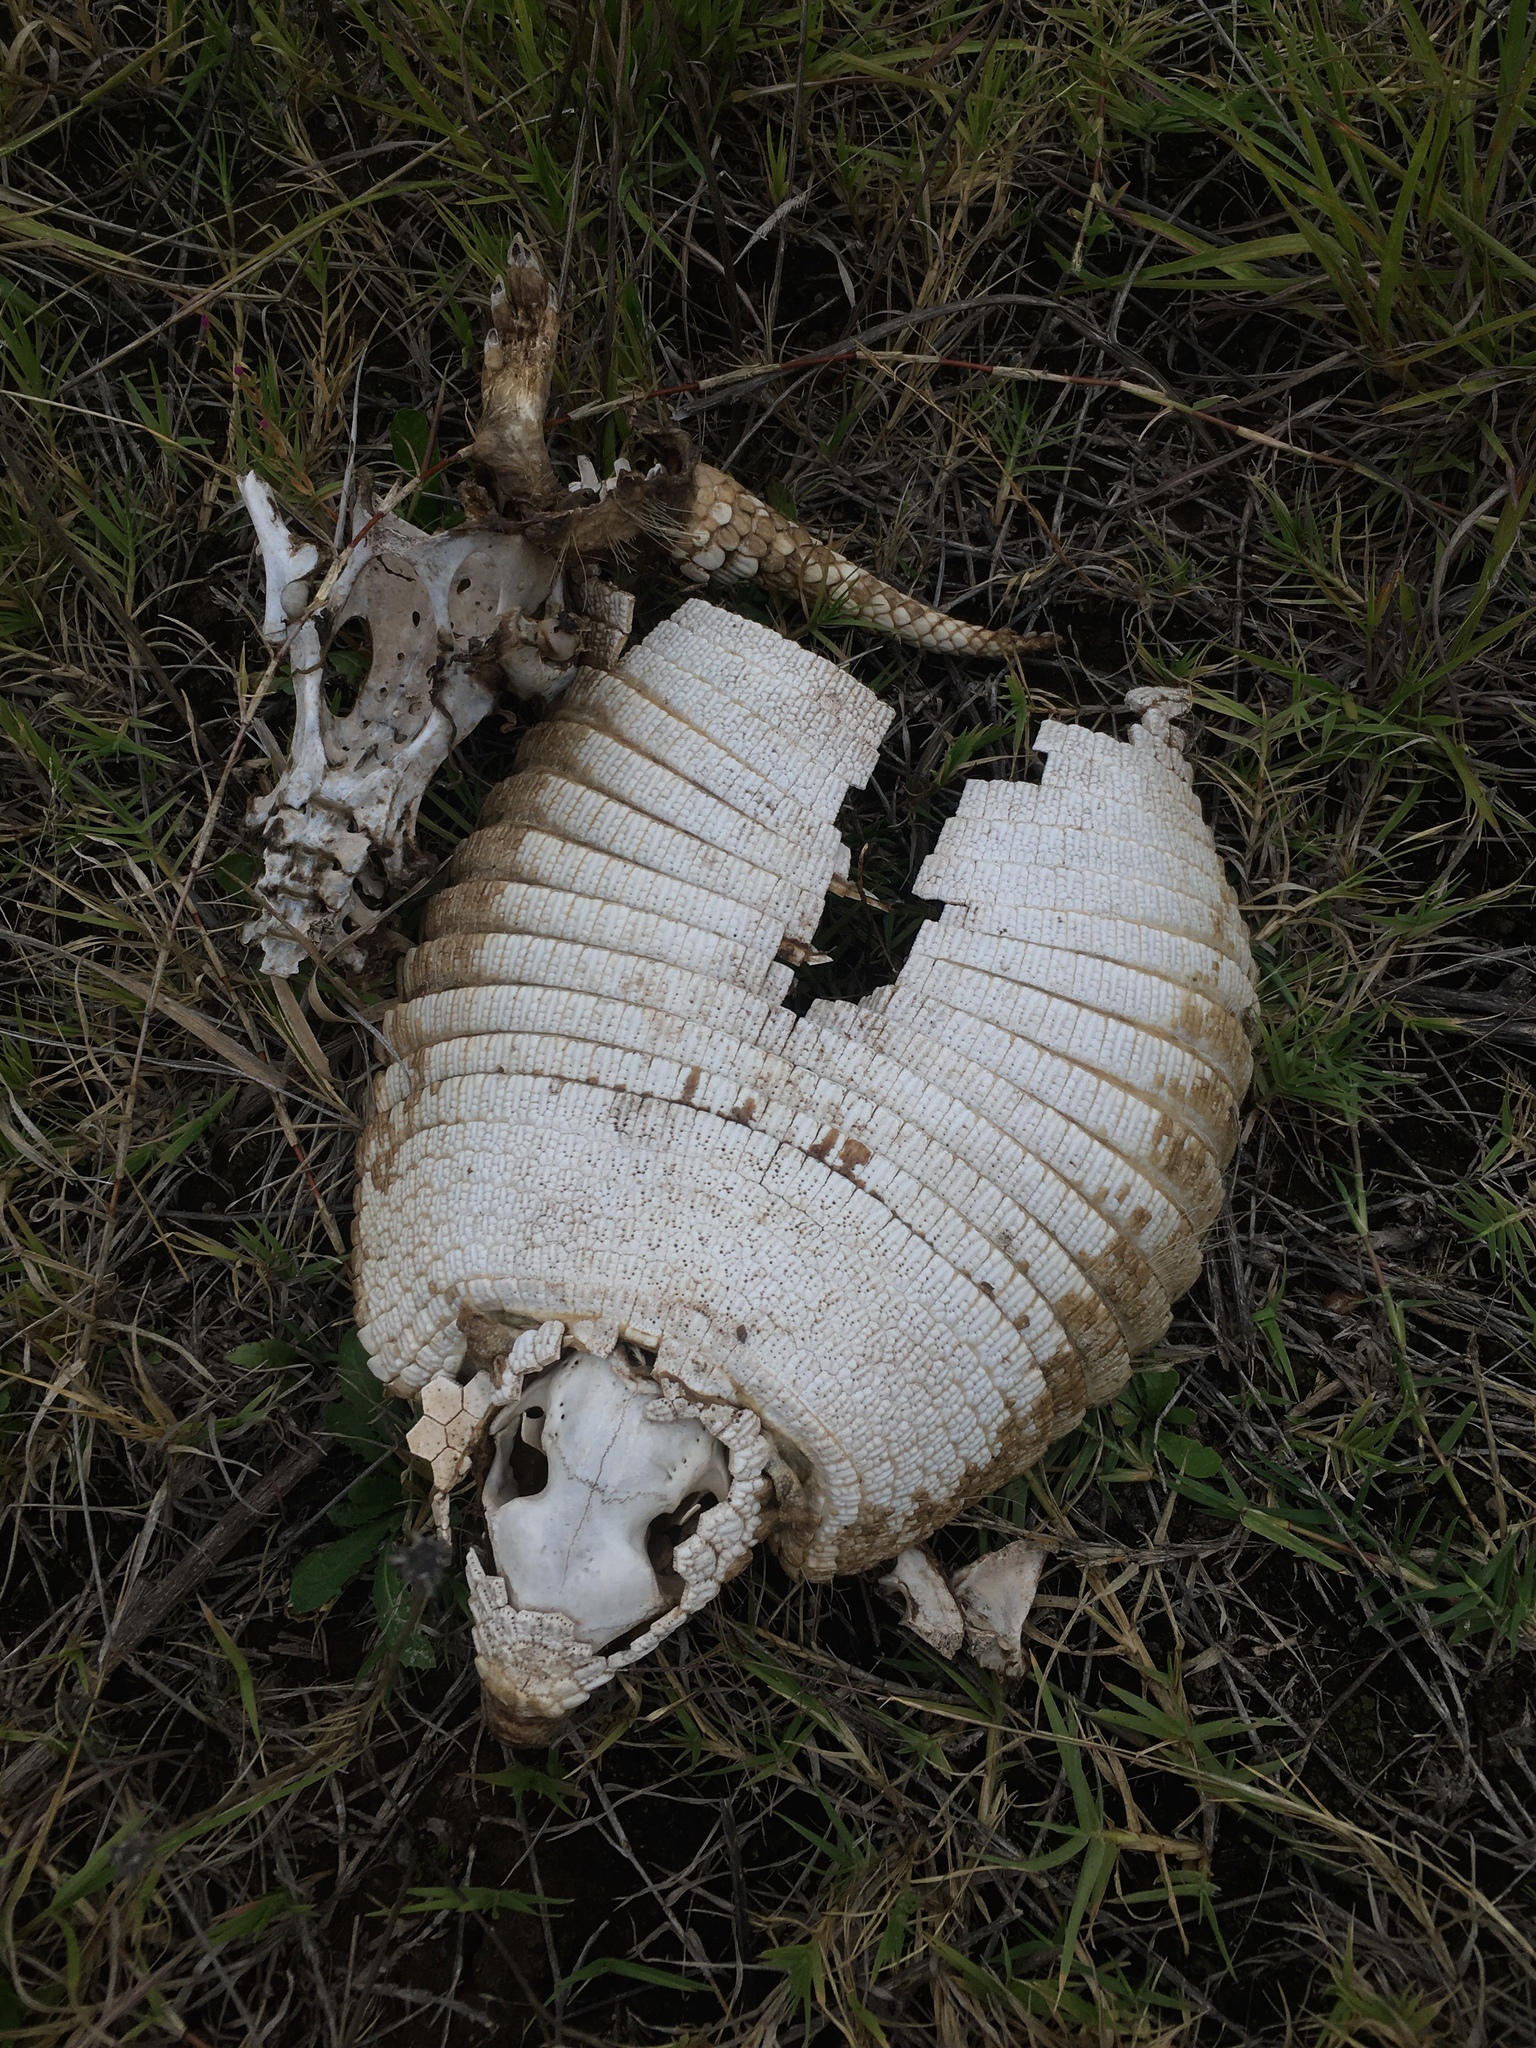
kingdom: Animalia
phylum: Chordata
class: Mammalia
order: Cingulata
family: Dasypodidae
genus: Chaetophractus
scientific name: Chaetophractus villosus
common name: Big hairy armadillo
